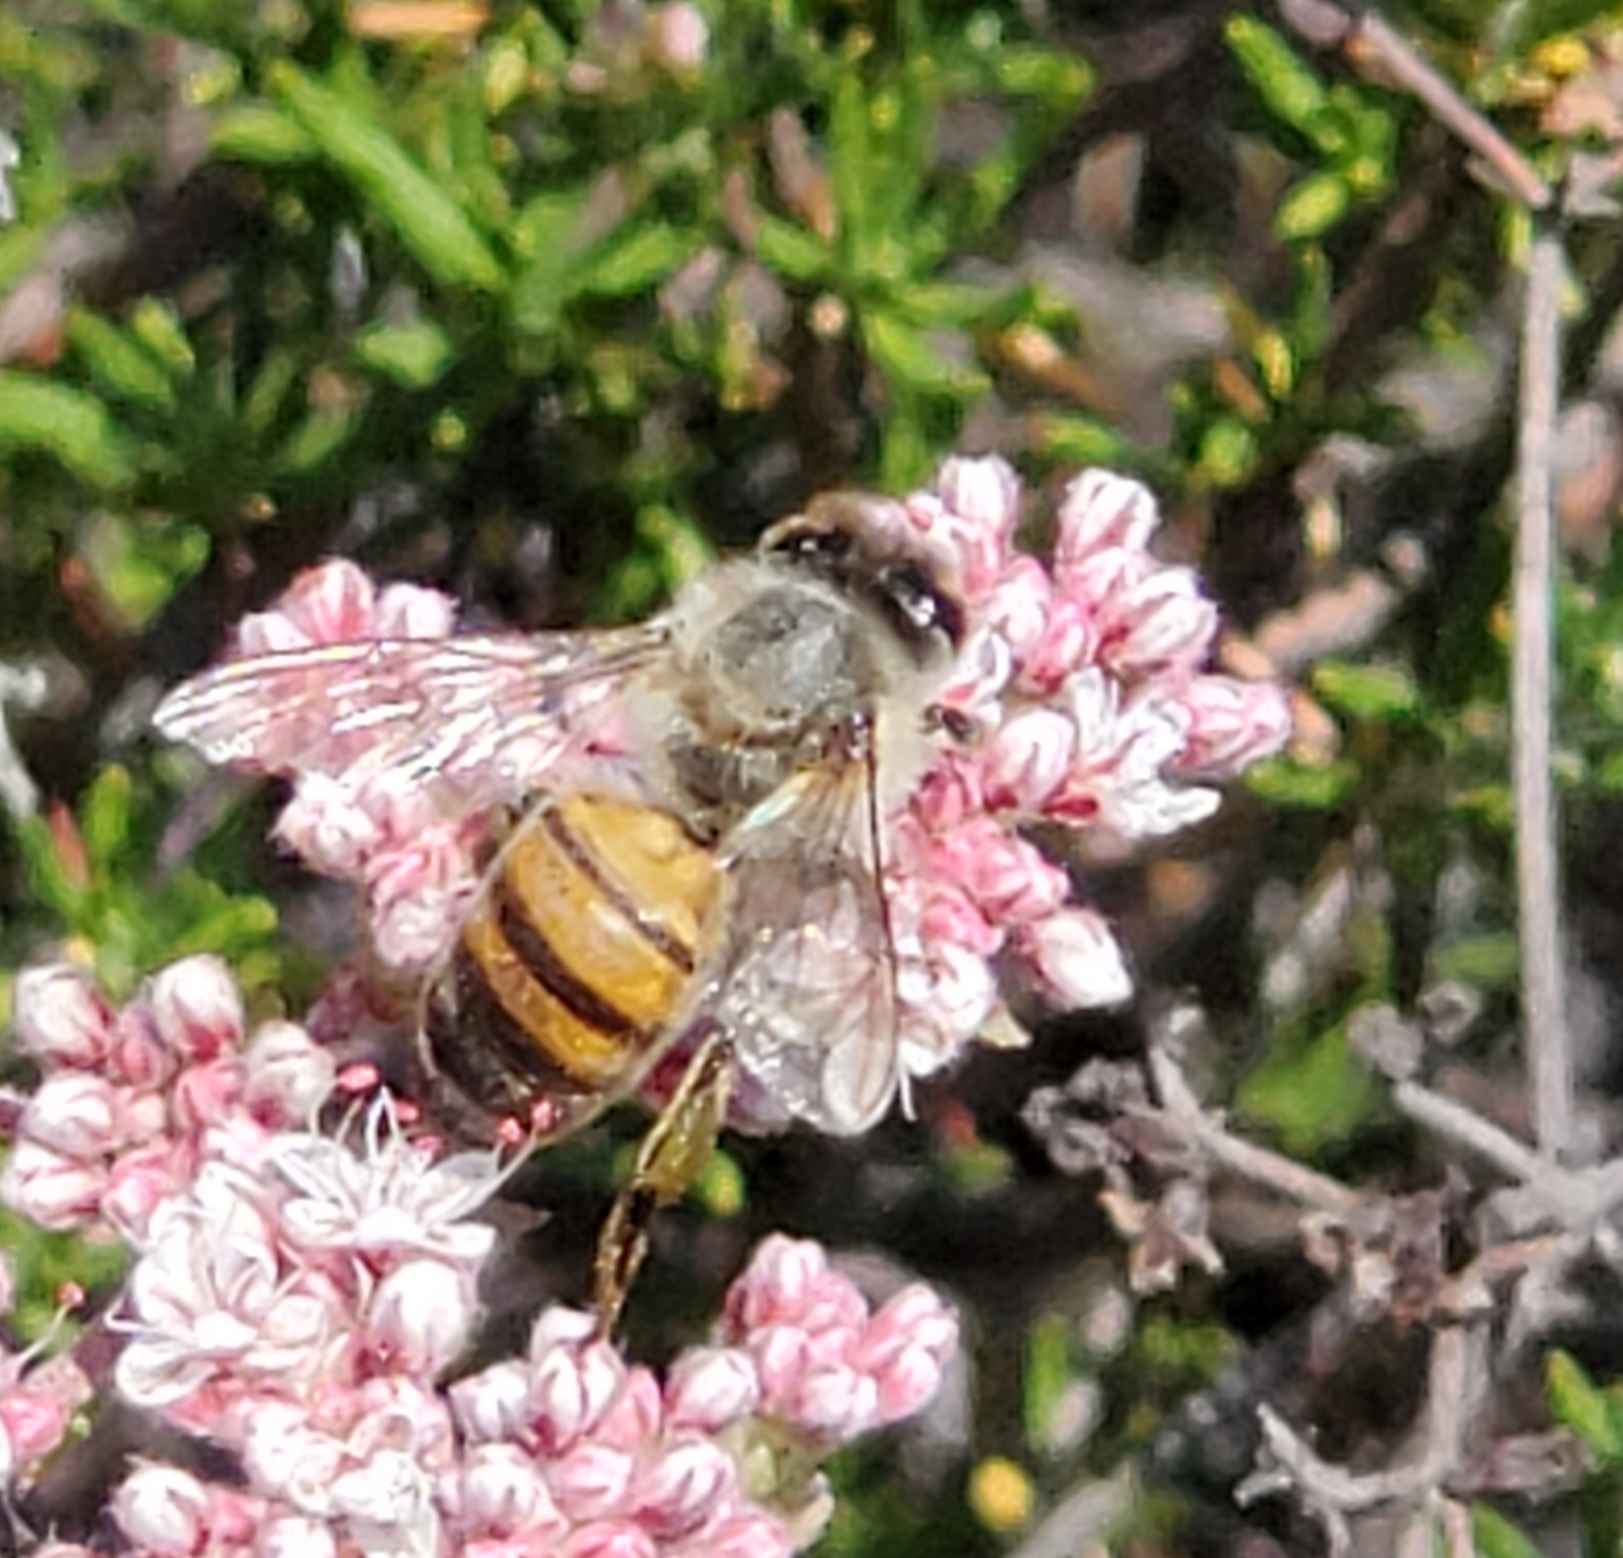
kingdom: Animalia
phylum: Arthropoda
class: Insecta
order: Hymenoptera
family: Apidae
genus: Apis
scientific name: Apis mellifera
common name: Honey bee
